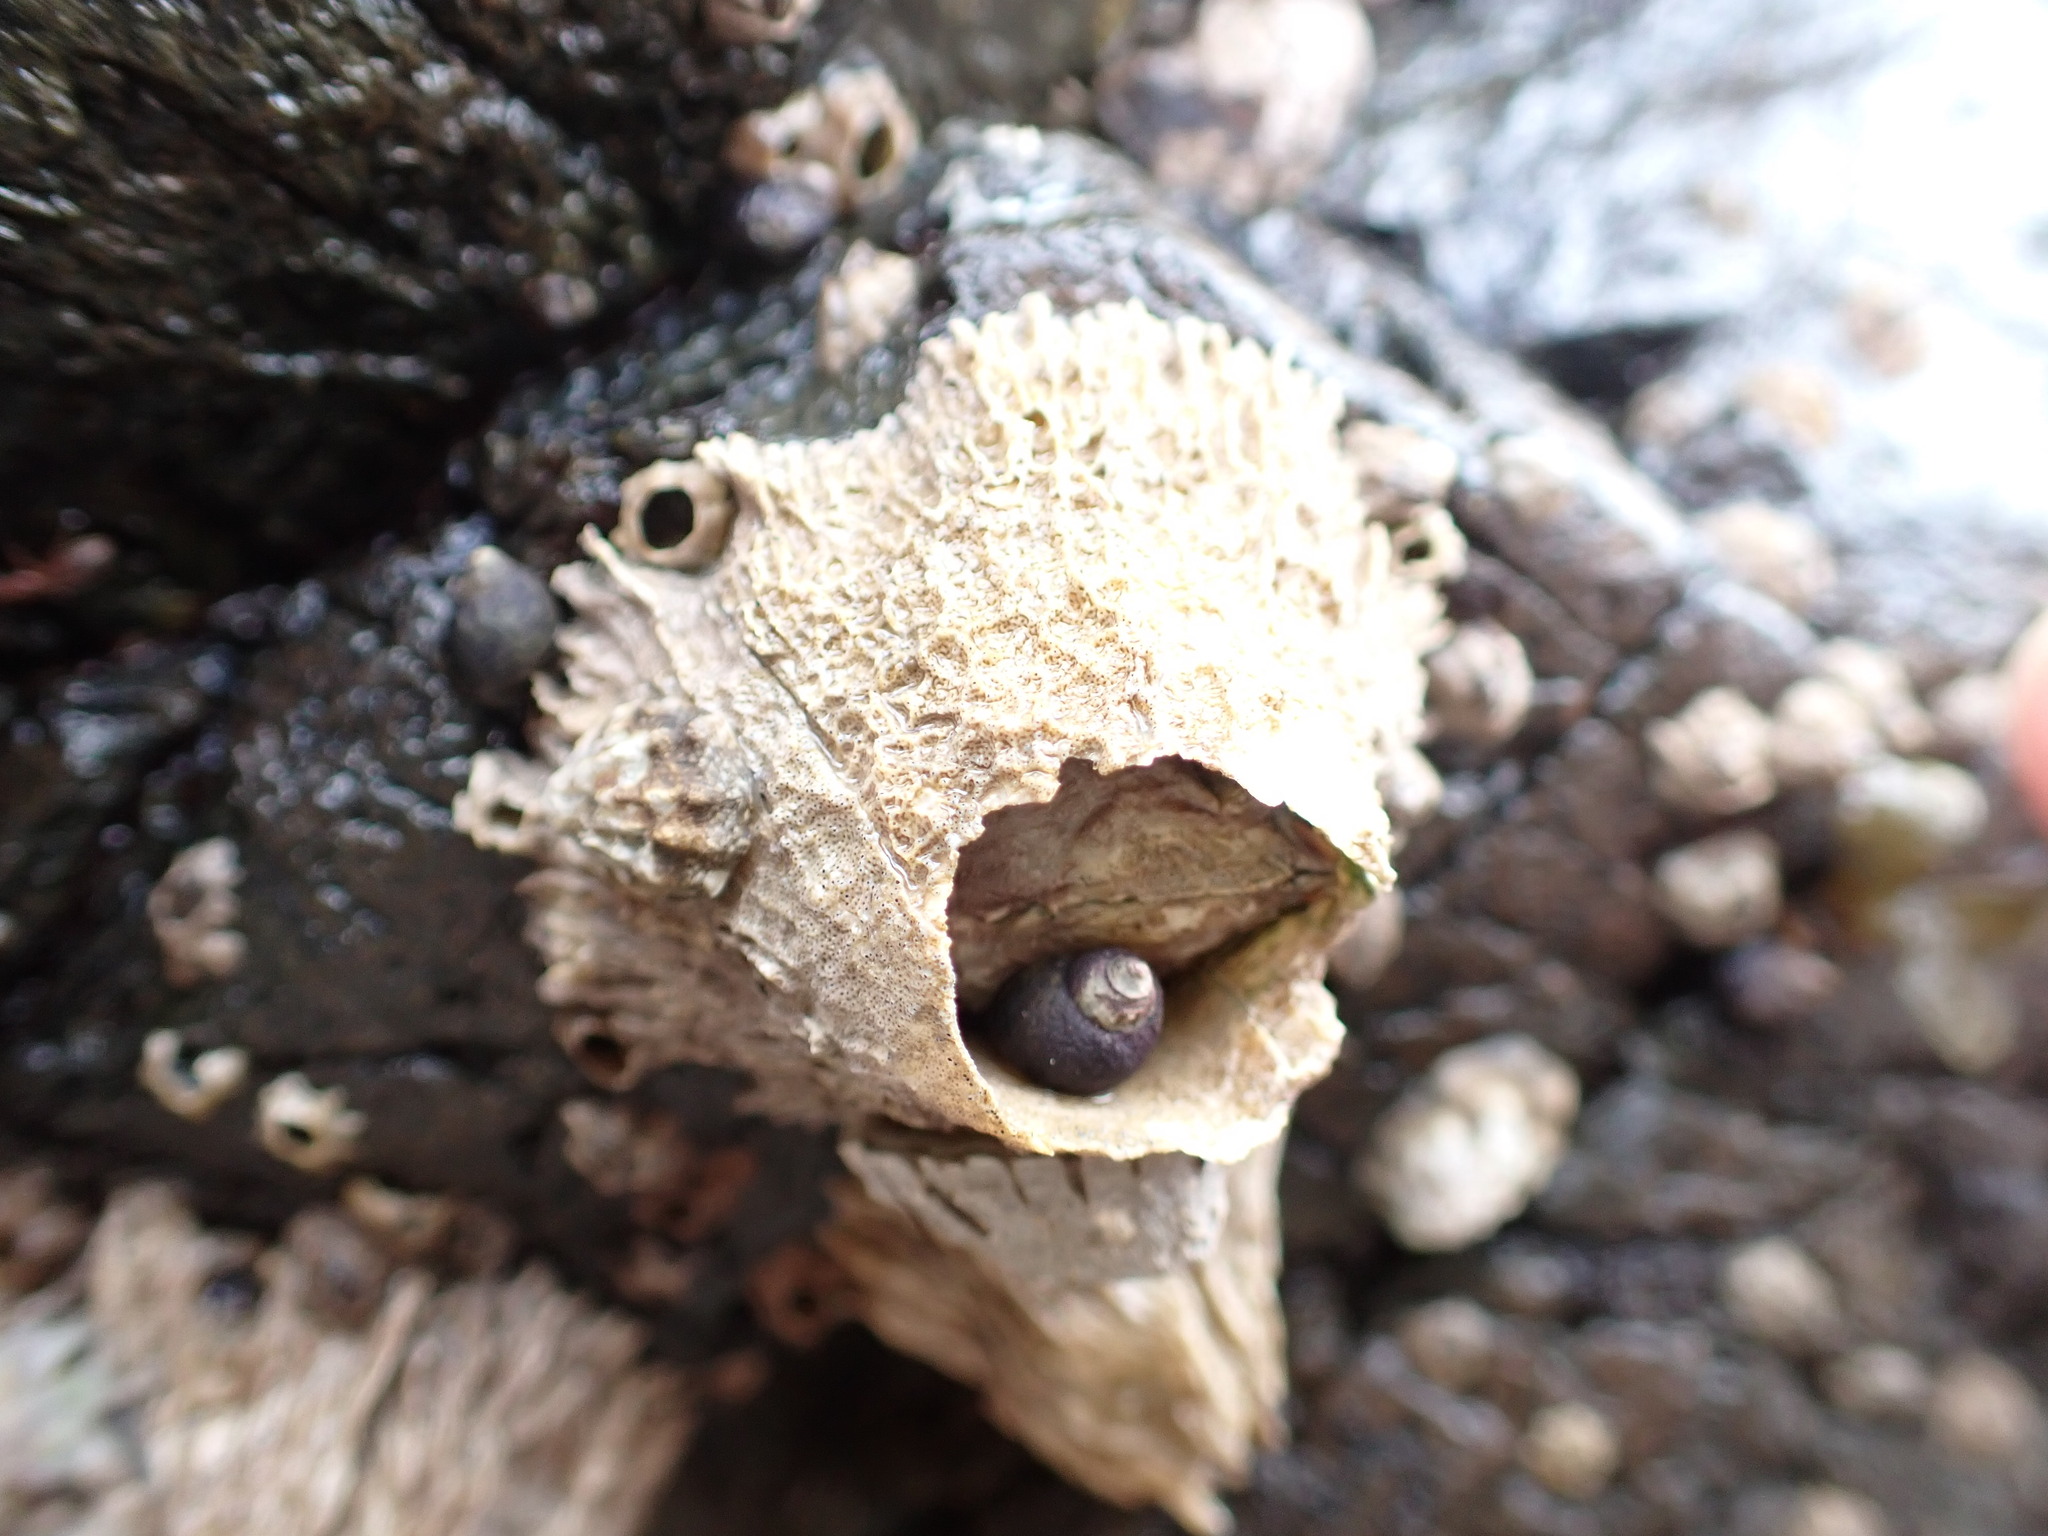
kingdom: Animalia
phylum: Arthropoda
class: Maxillopoda
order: Sessilia
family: Archaeobalanidae
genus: Semibalanus
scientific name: Semibalanus cariosus
